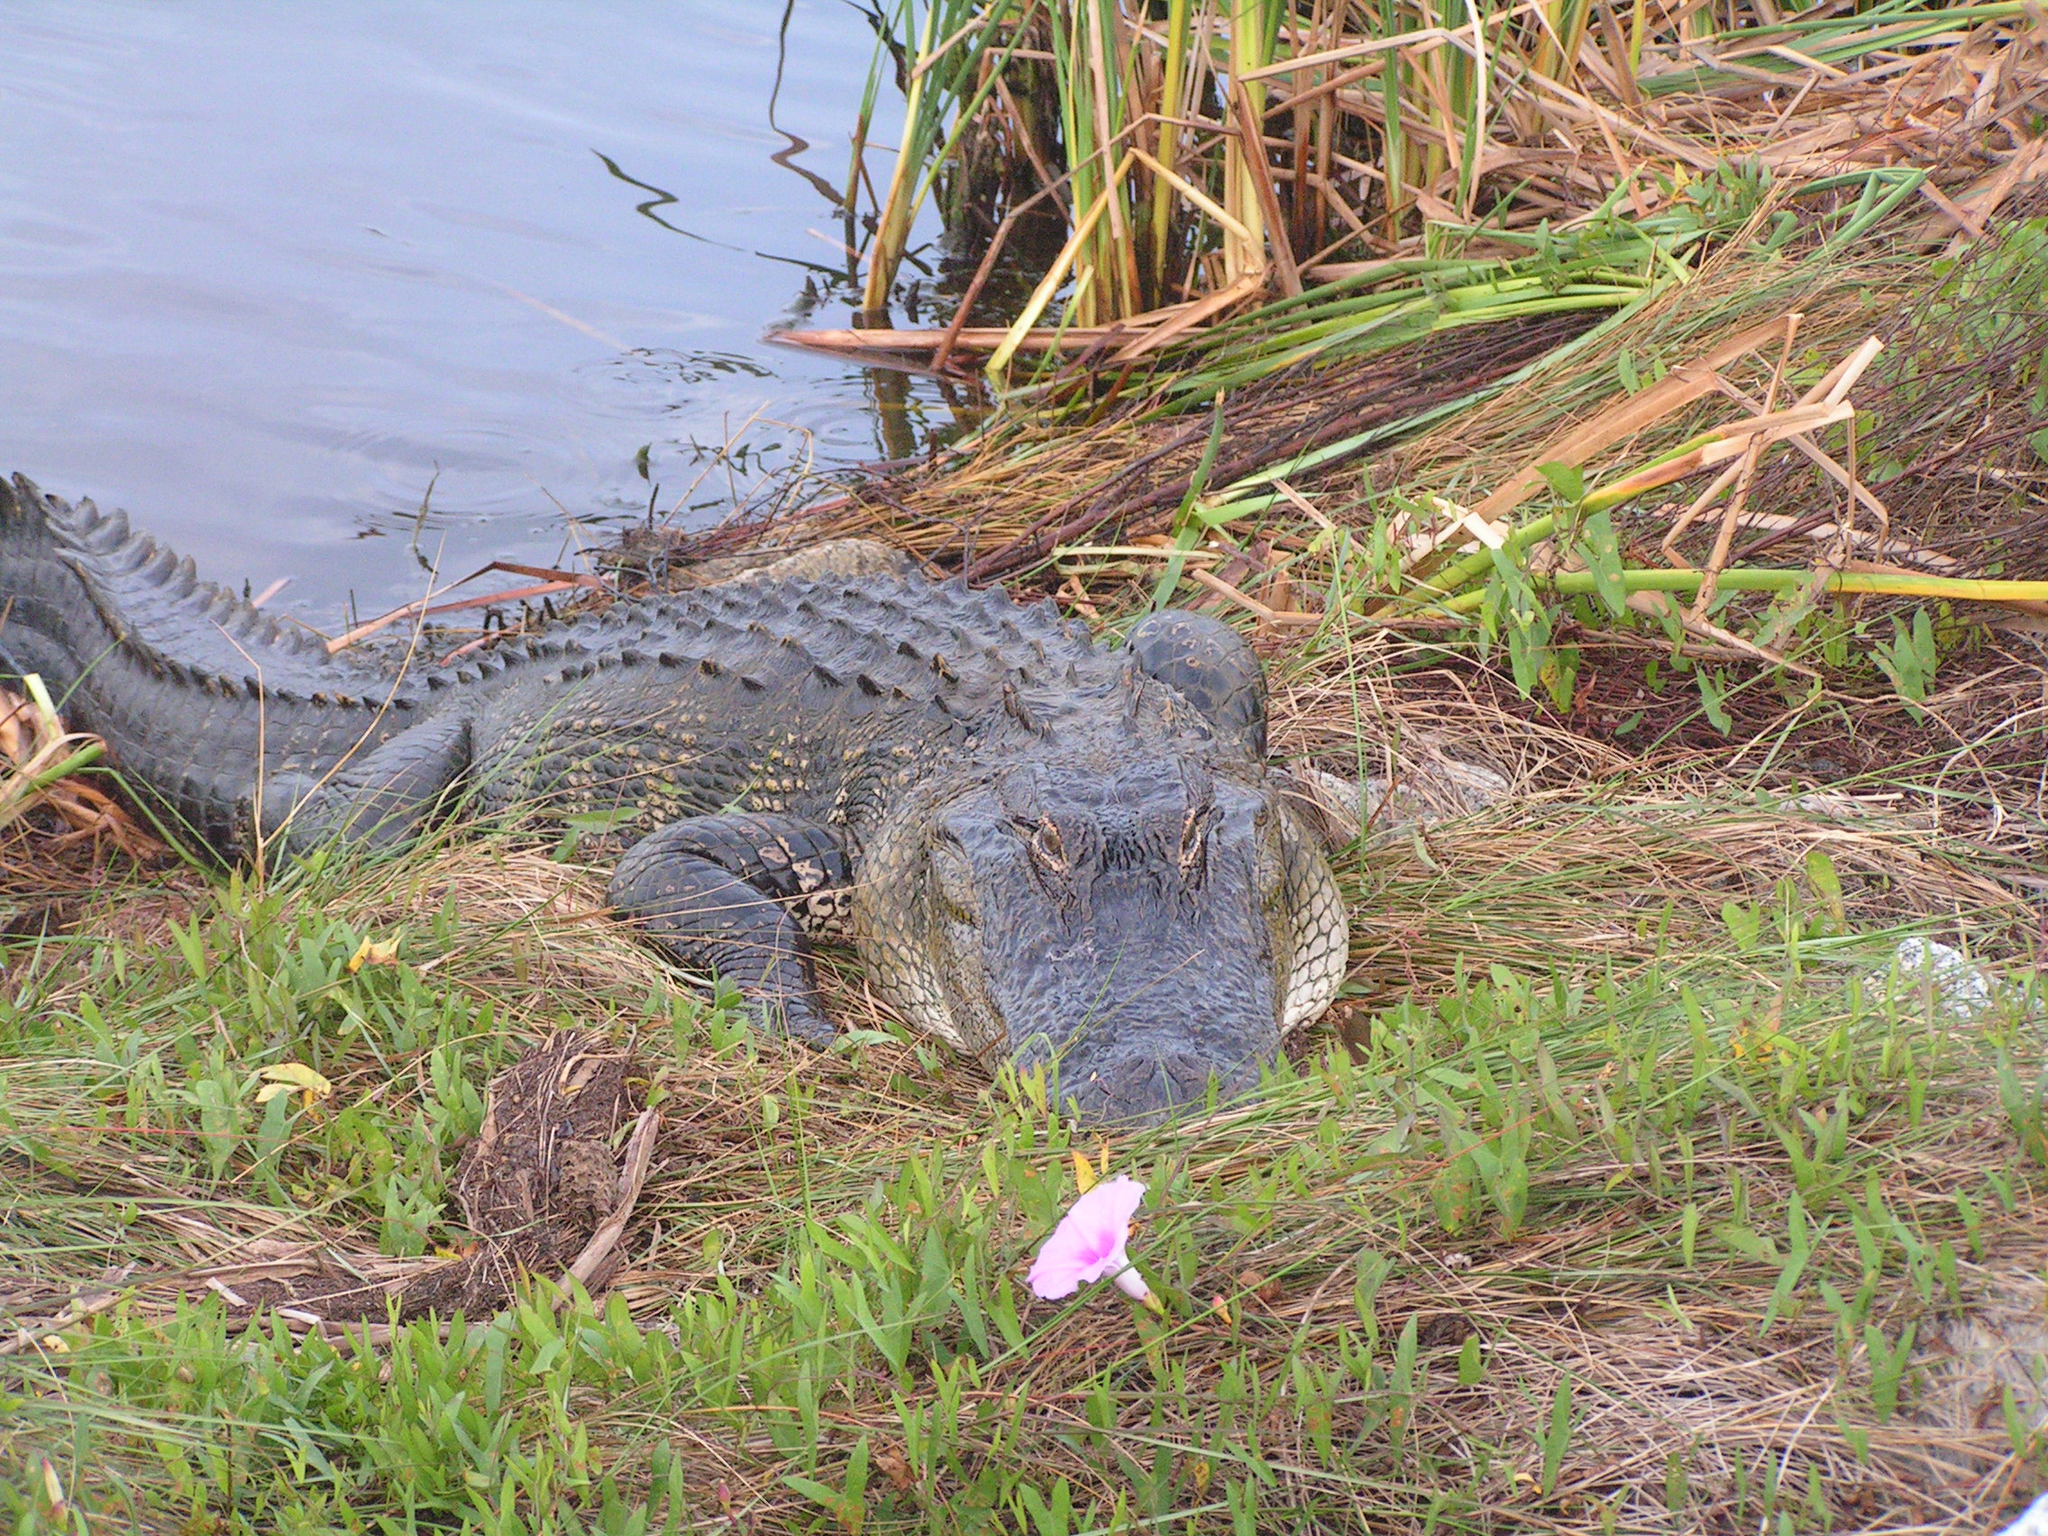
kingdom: Animalia
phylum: Chordata
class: Crocodylia
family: Alligatoridae
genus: Alligator
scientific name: Alligator mississippiensis
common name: American alligator
